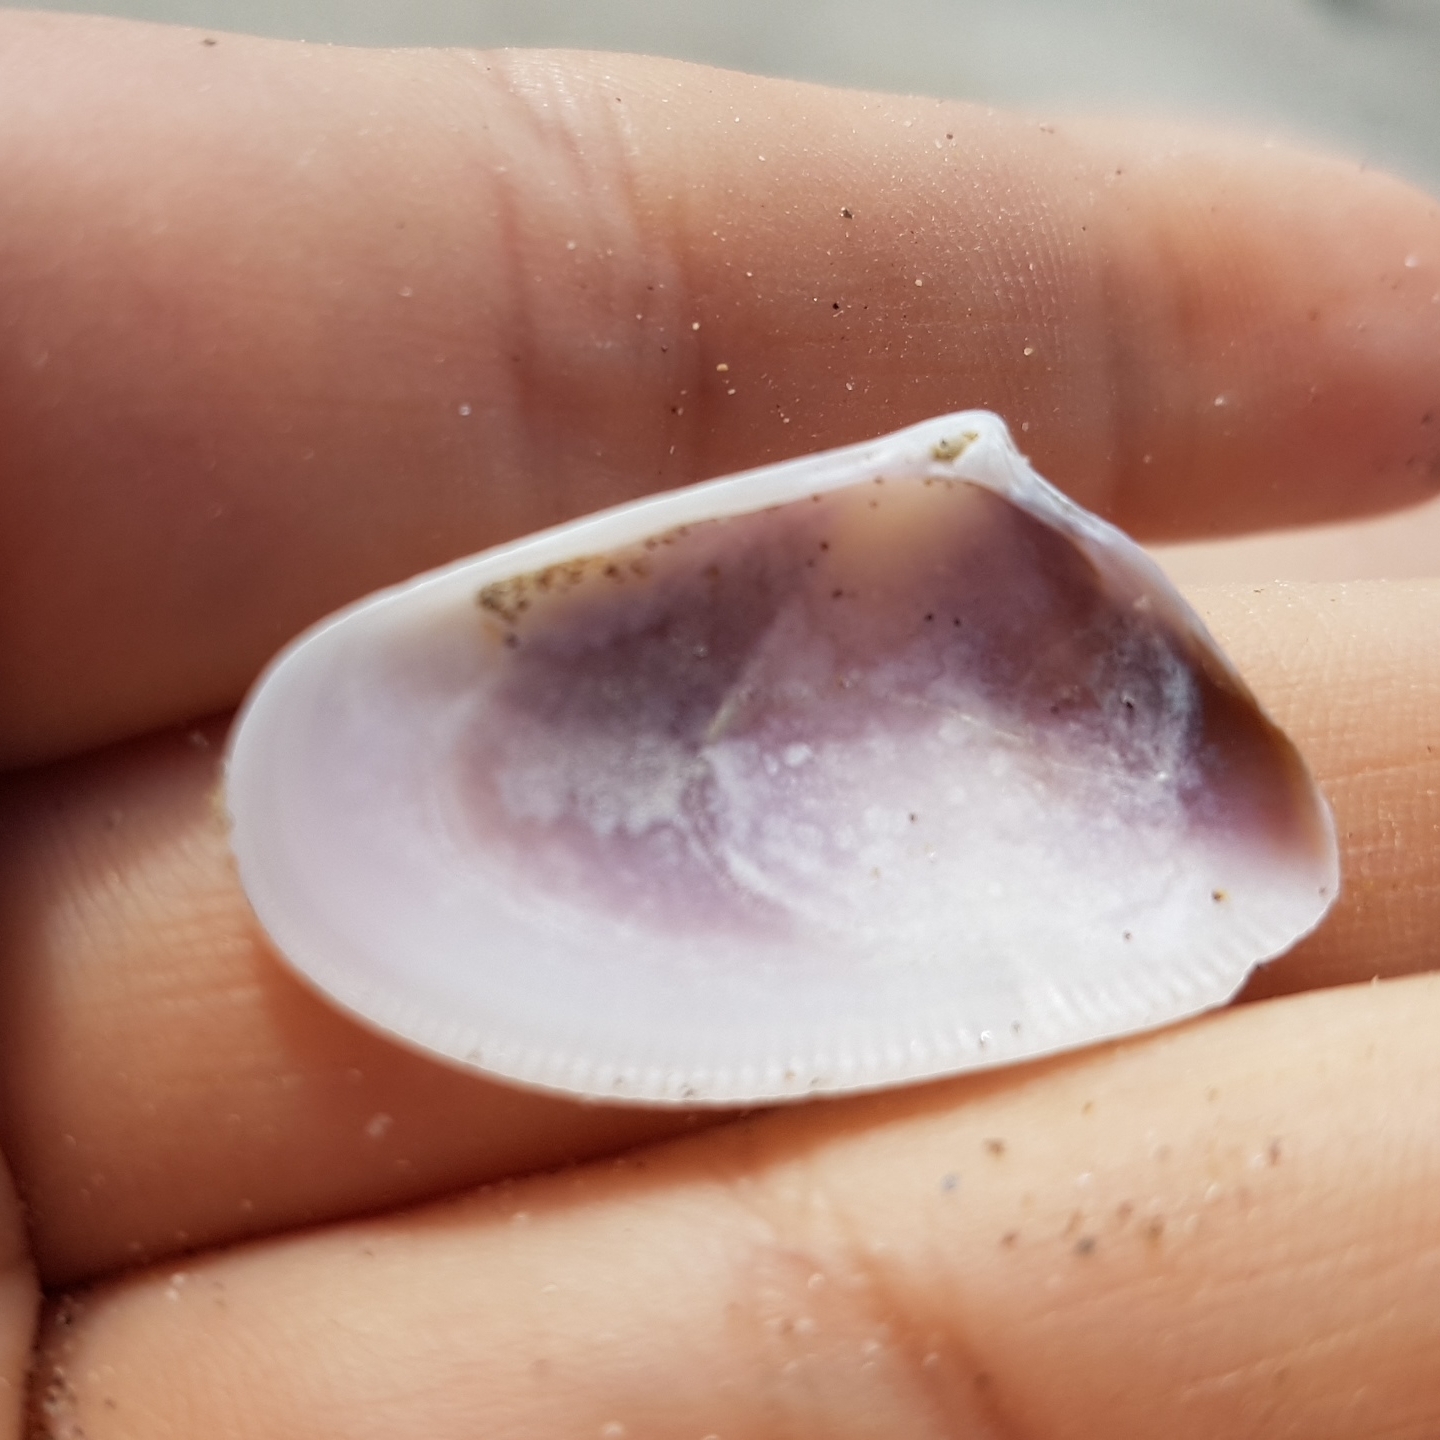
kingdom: Animalia
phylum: Mollusca
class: Bivalvia
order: Cardiida
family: Donacidae
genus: Donax
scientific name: Donax trunculus
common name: Truncate donax
